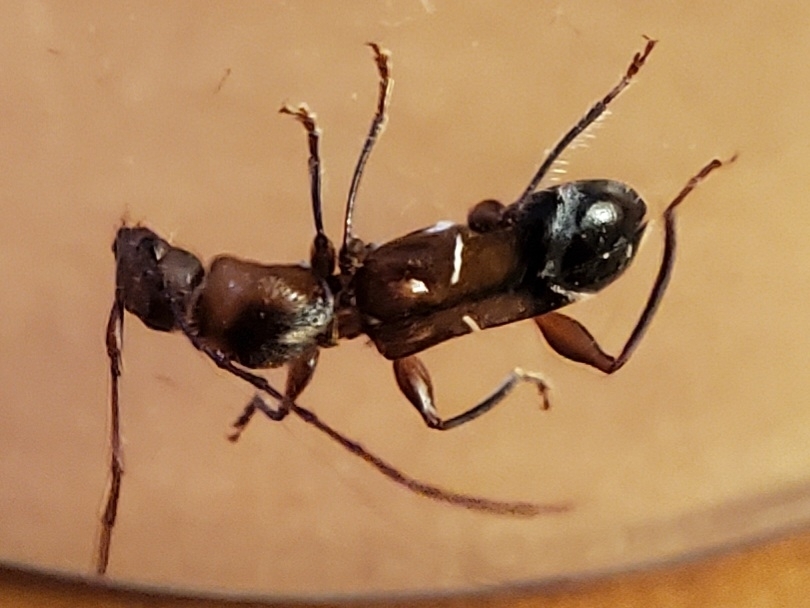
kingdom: Animalia
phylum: Arthropoda
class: Insecta
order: Coleoptera
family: Cerambycidae
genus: Euderces
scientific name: Euderces pini
